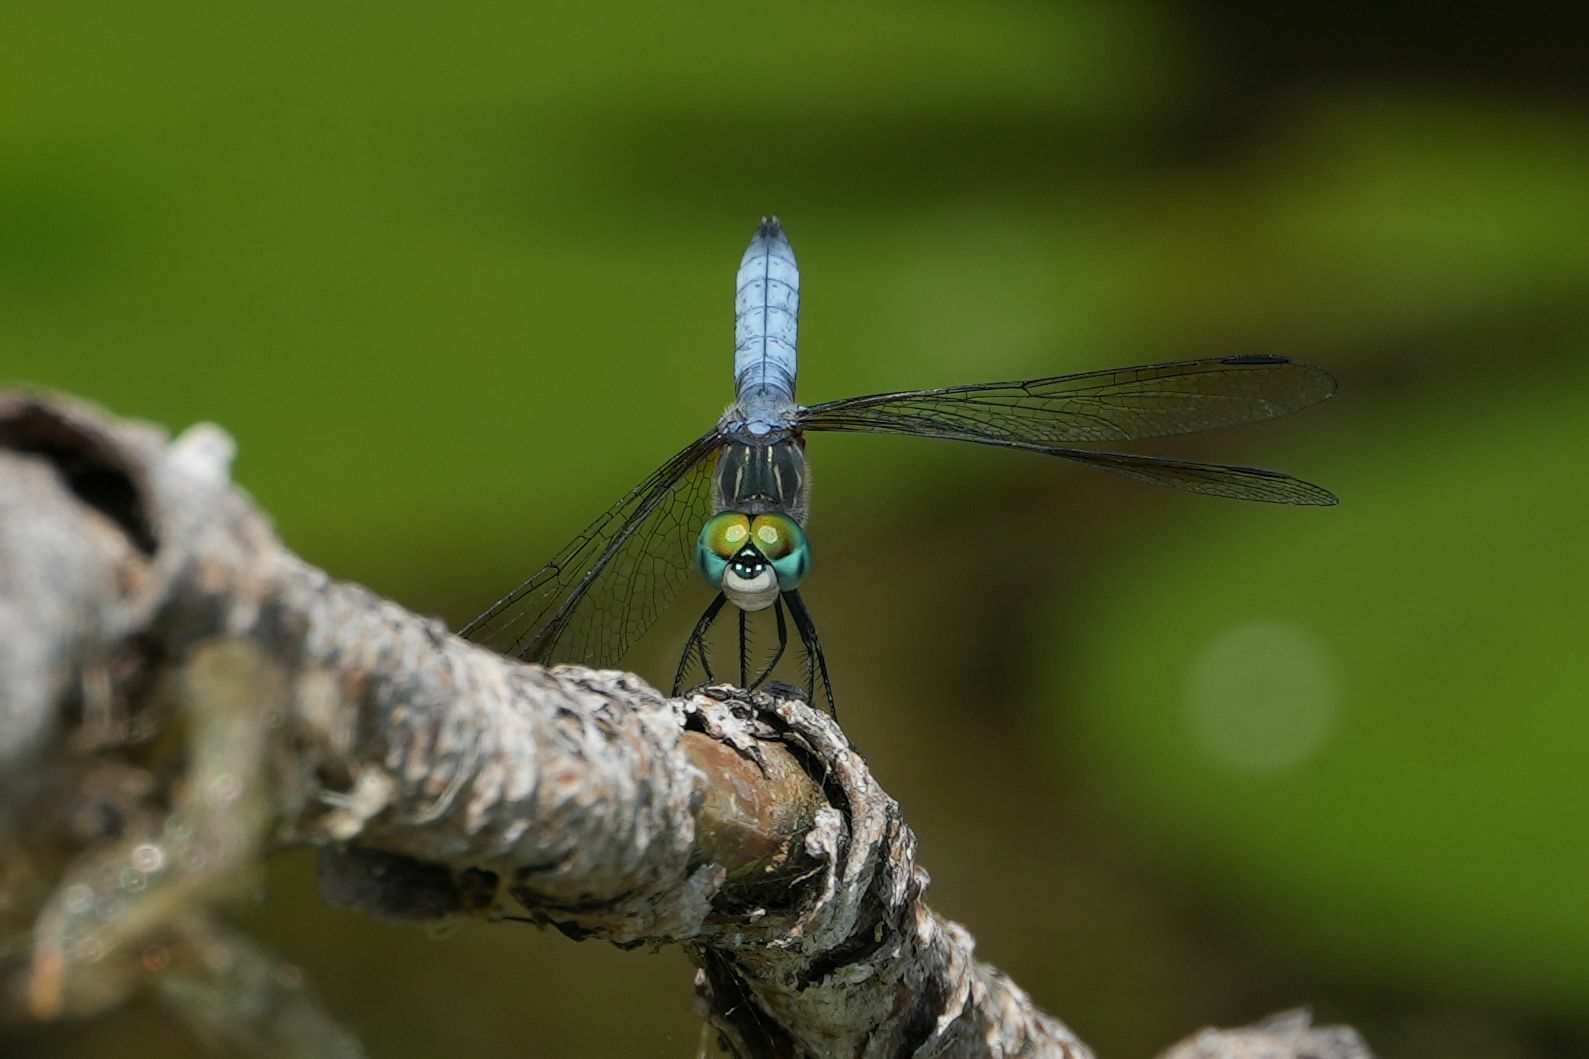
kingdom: Animalia
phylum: Arthropoda
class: Insecta
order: Odonata
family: Libellulidae
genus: Pachydiplax
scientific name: Pachydiplax longipennis
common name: Blue dasher
